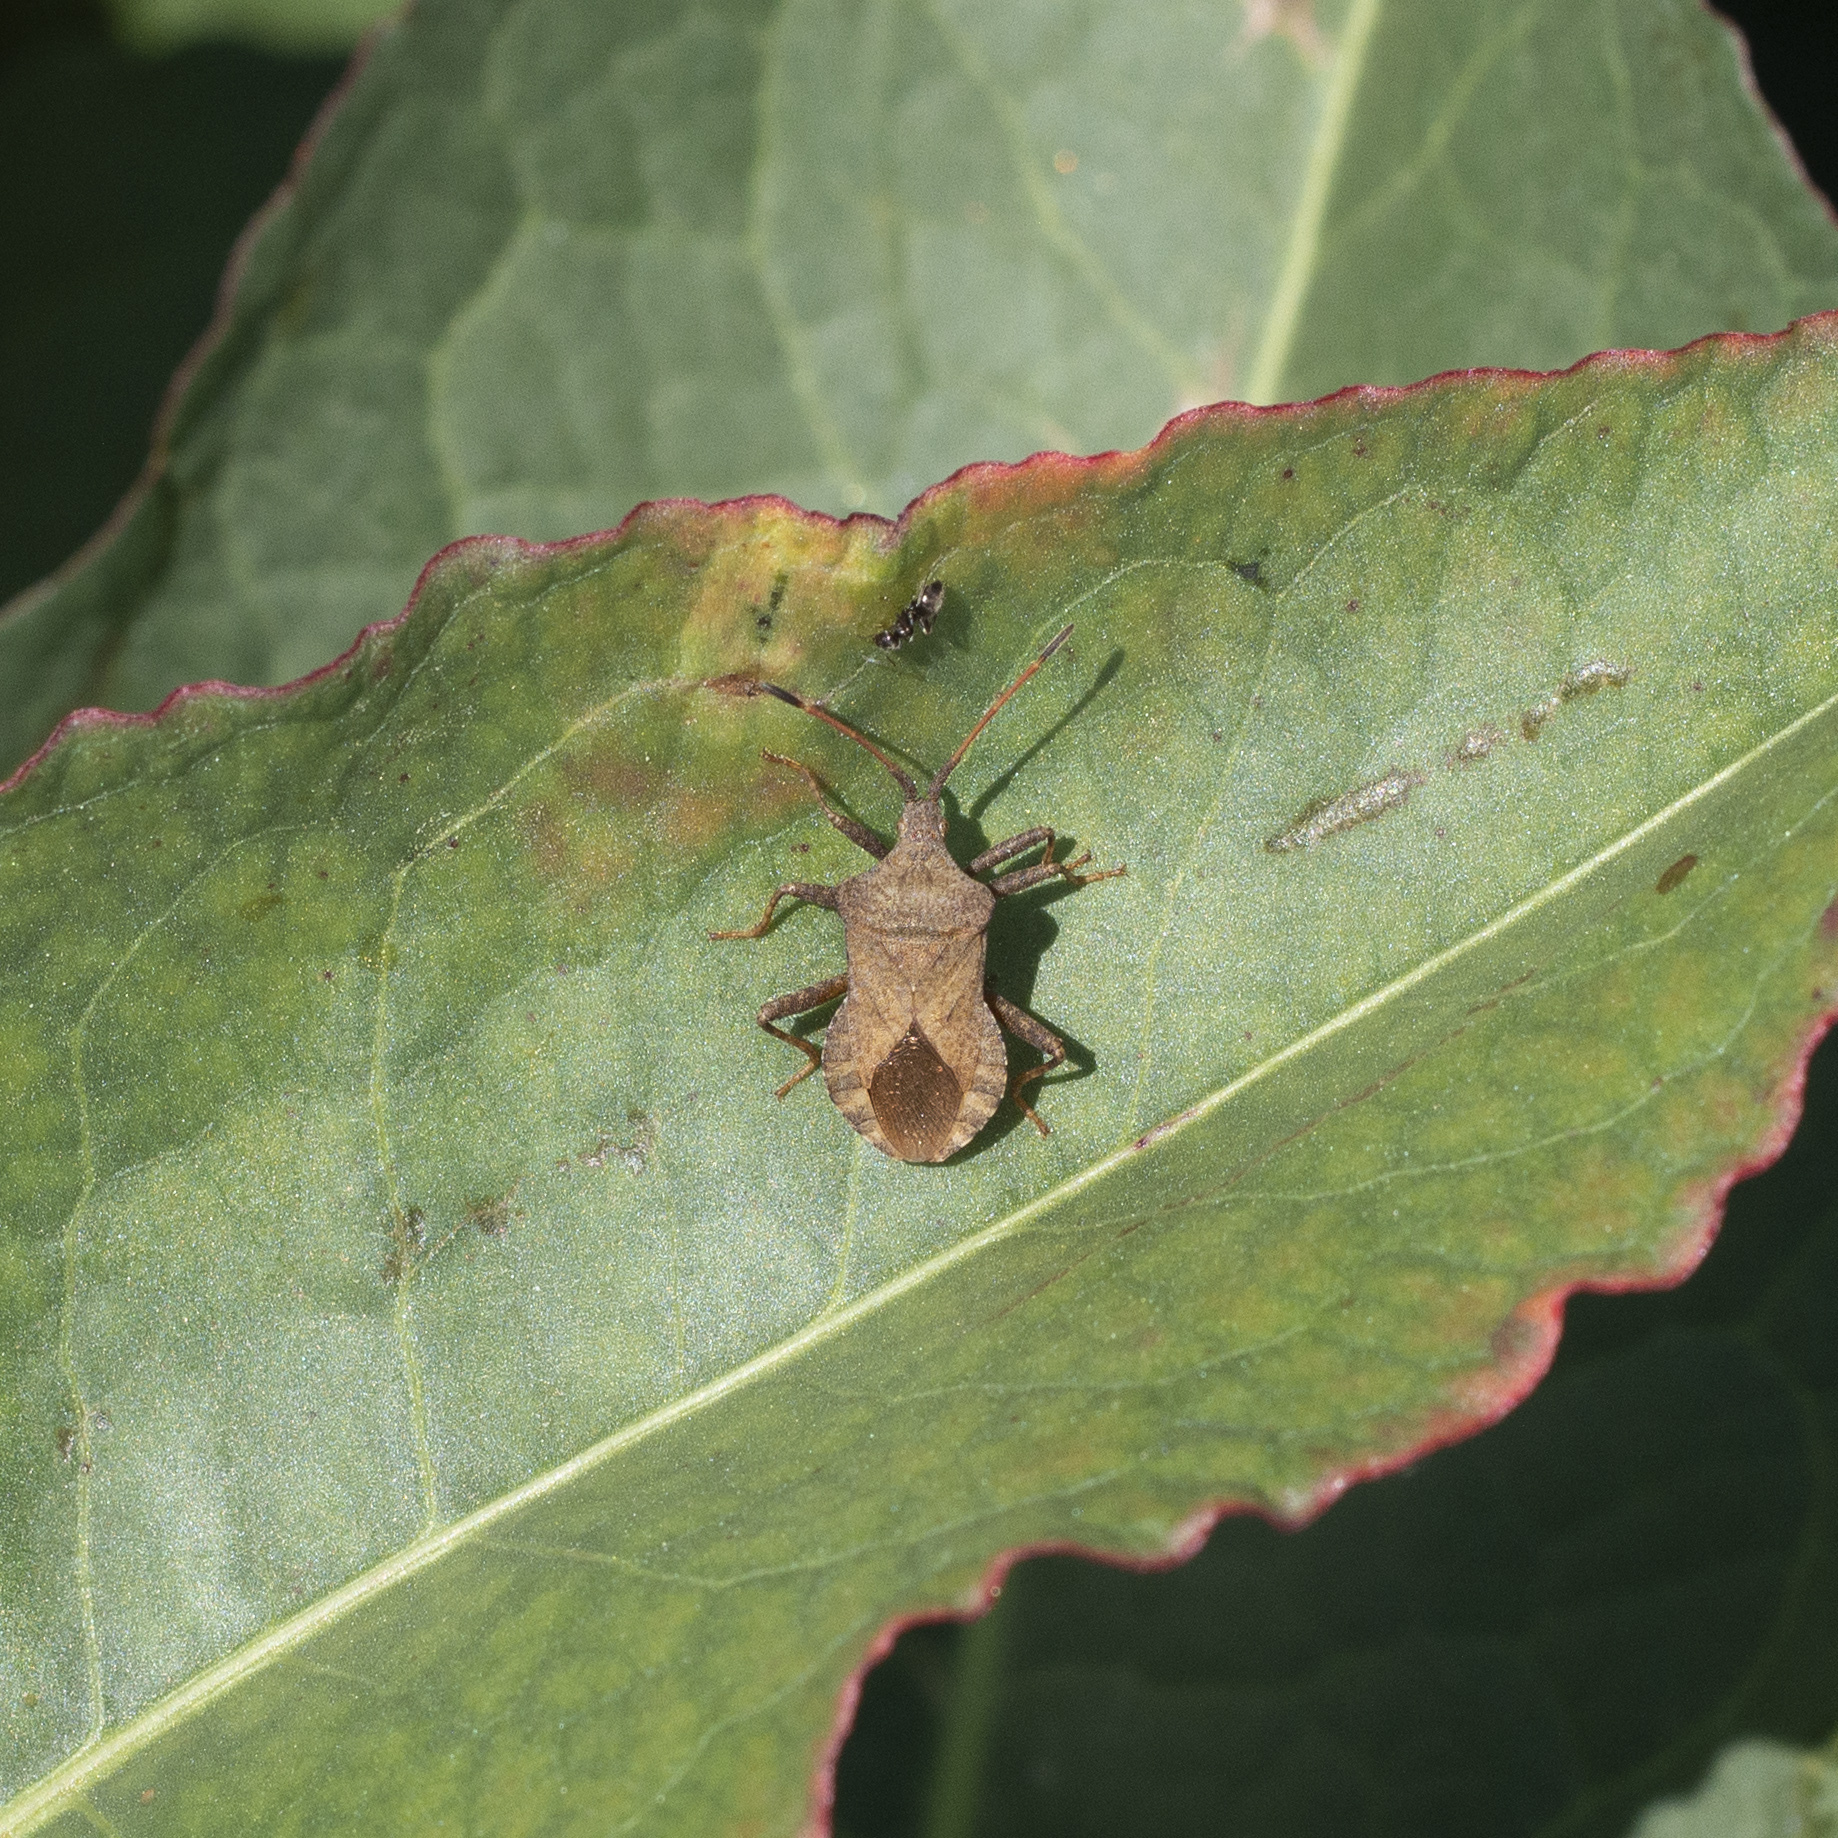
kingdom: Animalia
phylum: Arthropoda
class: Insecta
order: Hemiptera
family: Coreidae
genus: Coreus
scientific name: Coreus marginatus
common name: Dock bug
